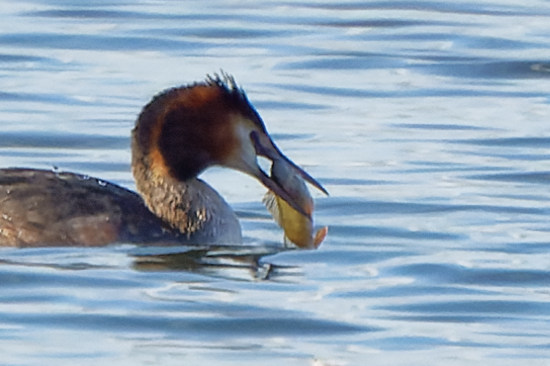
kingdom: Animalia
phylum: Chordata
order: Perciformes
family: Percidae
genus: Perca
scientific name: Perca fluviatilis
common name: Perch
